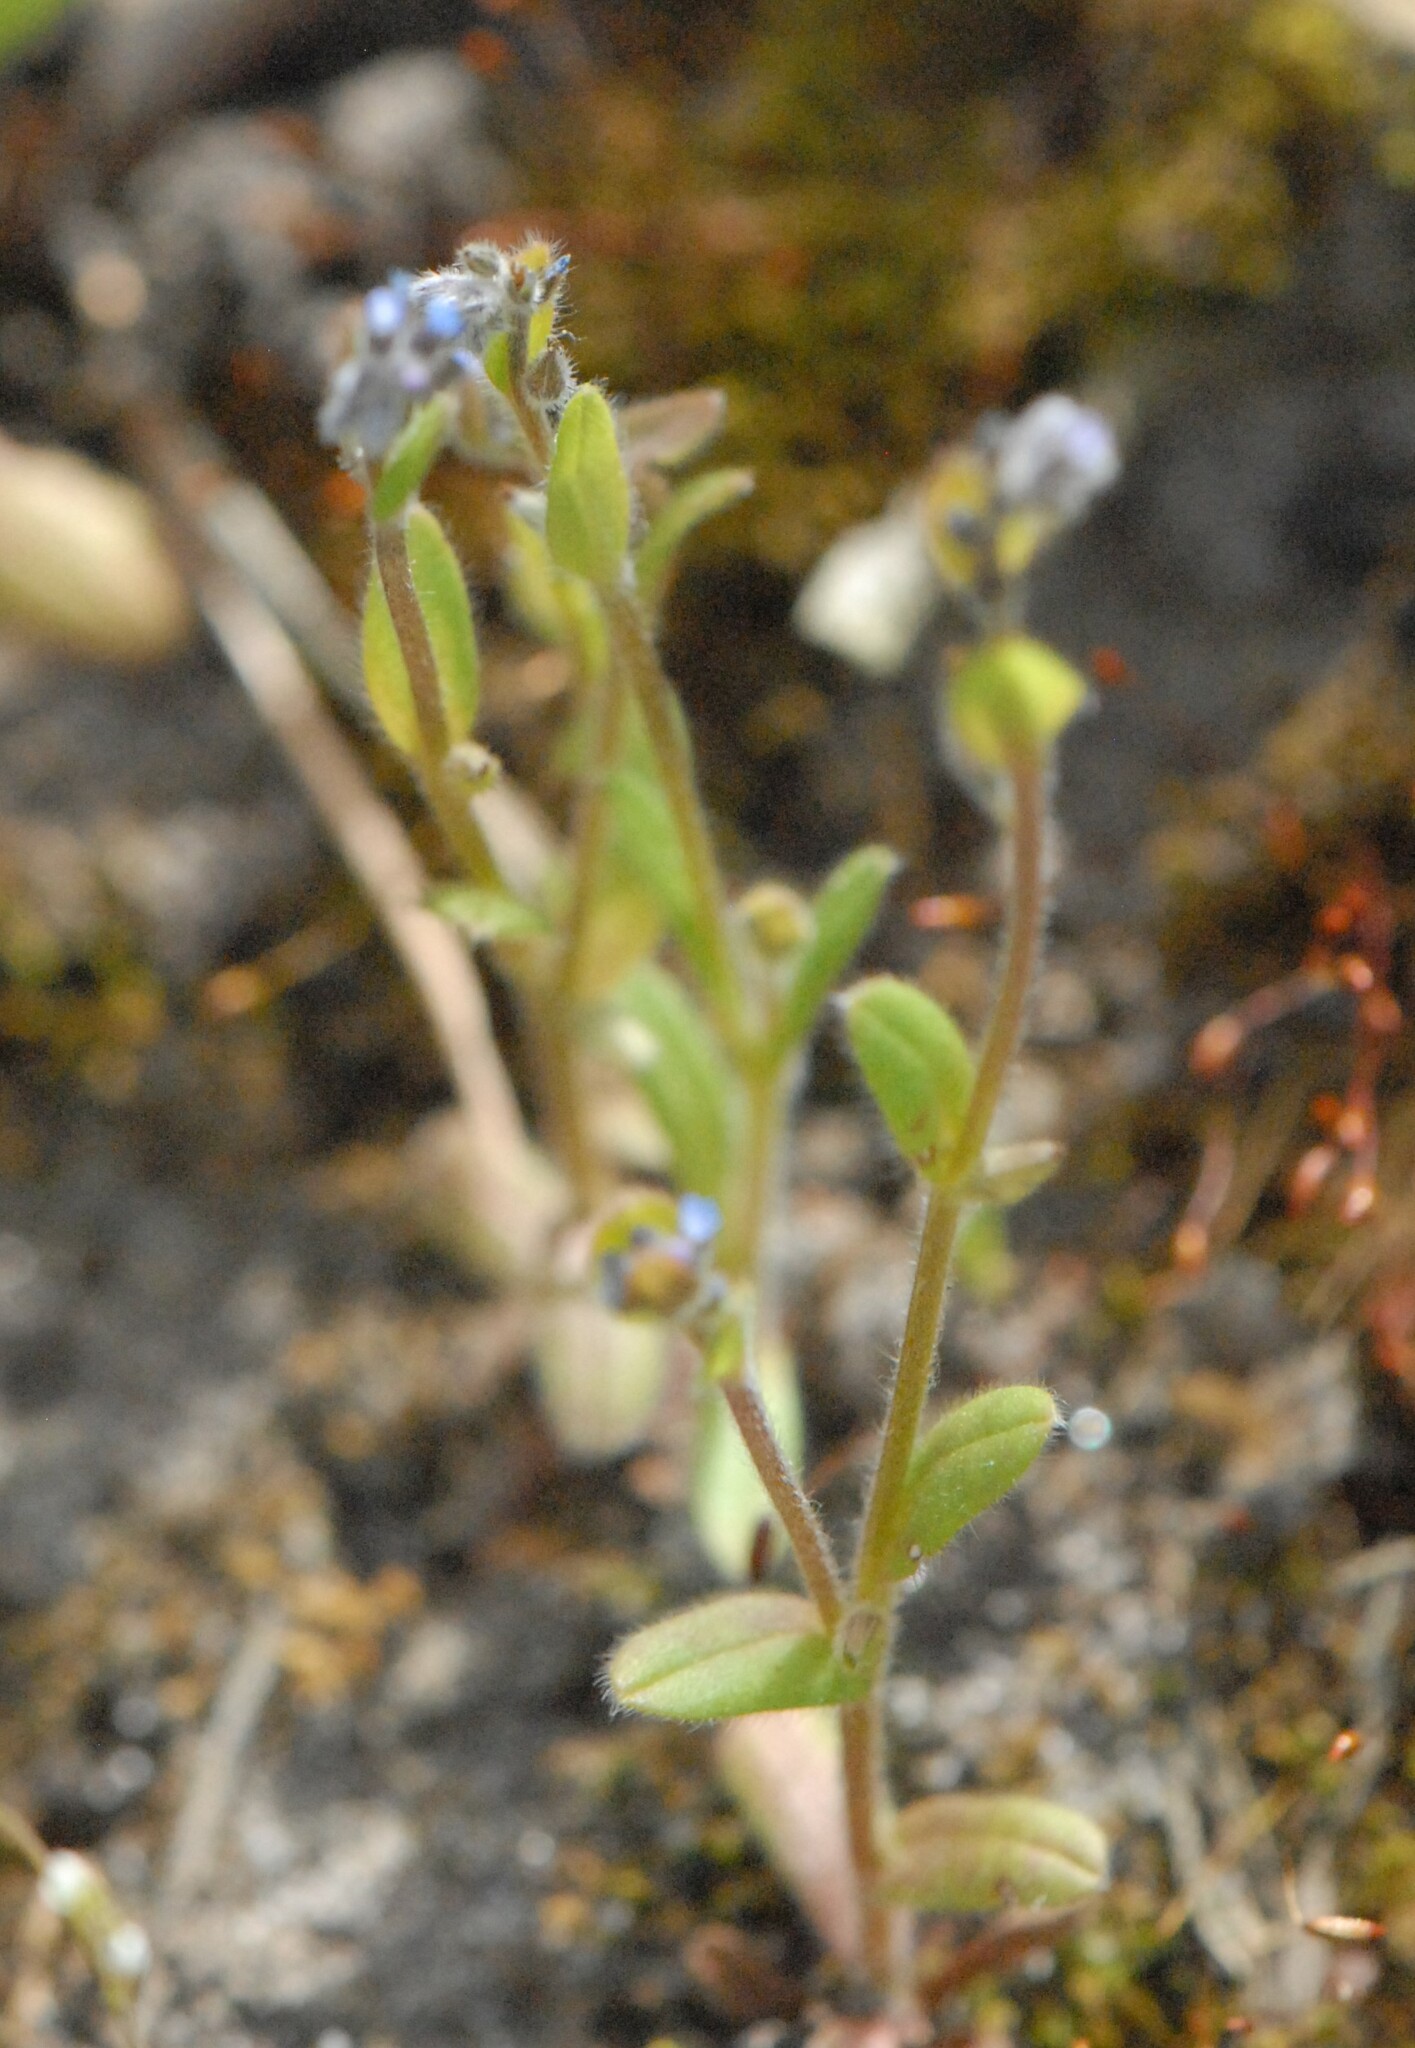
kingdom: Plantae
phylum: Tracheophyta
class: Magnoliopsida
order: Boraginales
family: Boraginaceae
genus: Myosotis
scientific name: Myosotis stricta
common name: Strict forget-me-not
